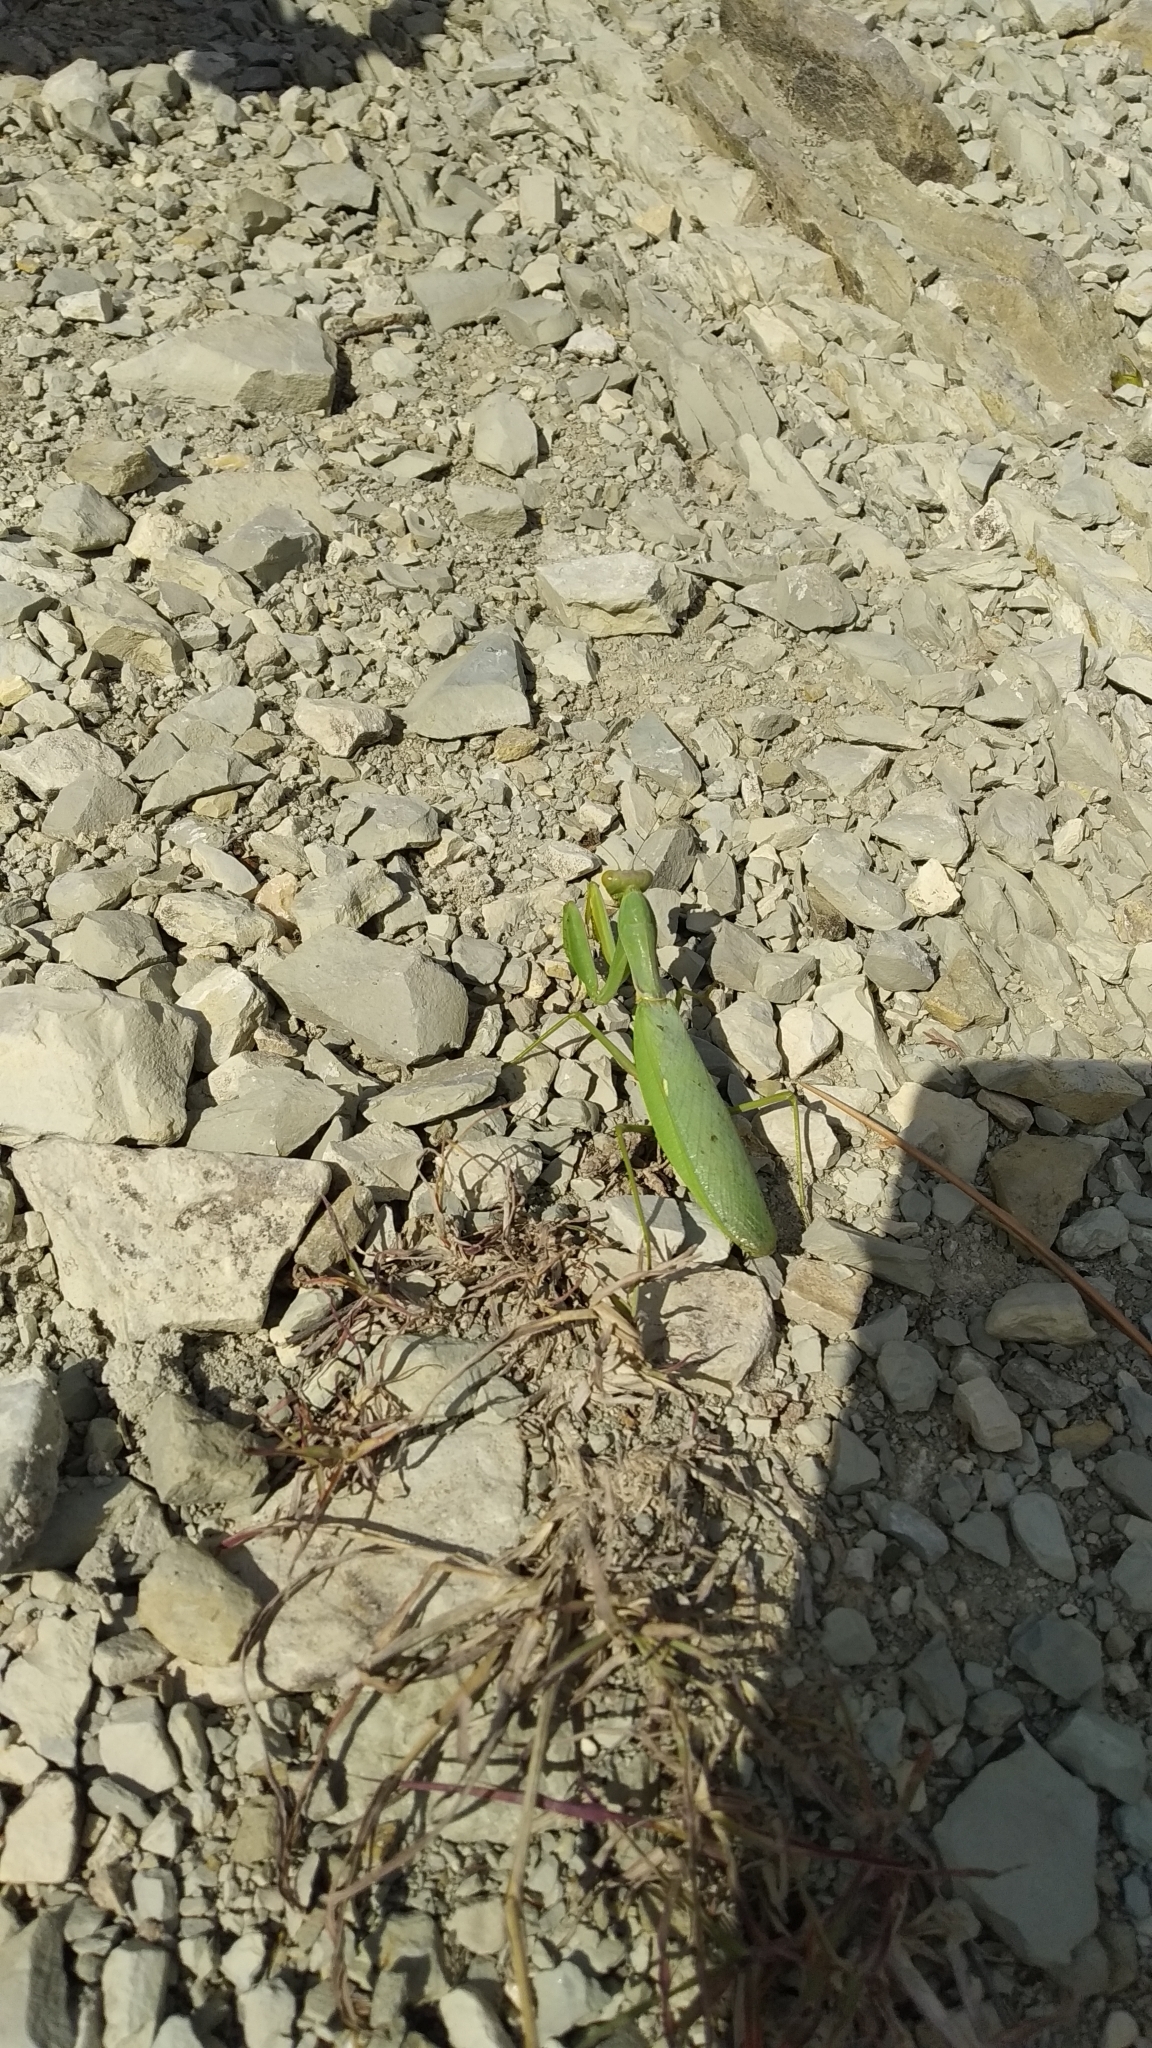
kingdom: Animalia
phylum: Arthropoda
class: Insecta
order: Mantodea
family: Mantidae
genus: Hierodula
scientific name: Hierodula transcaucasica
